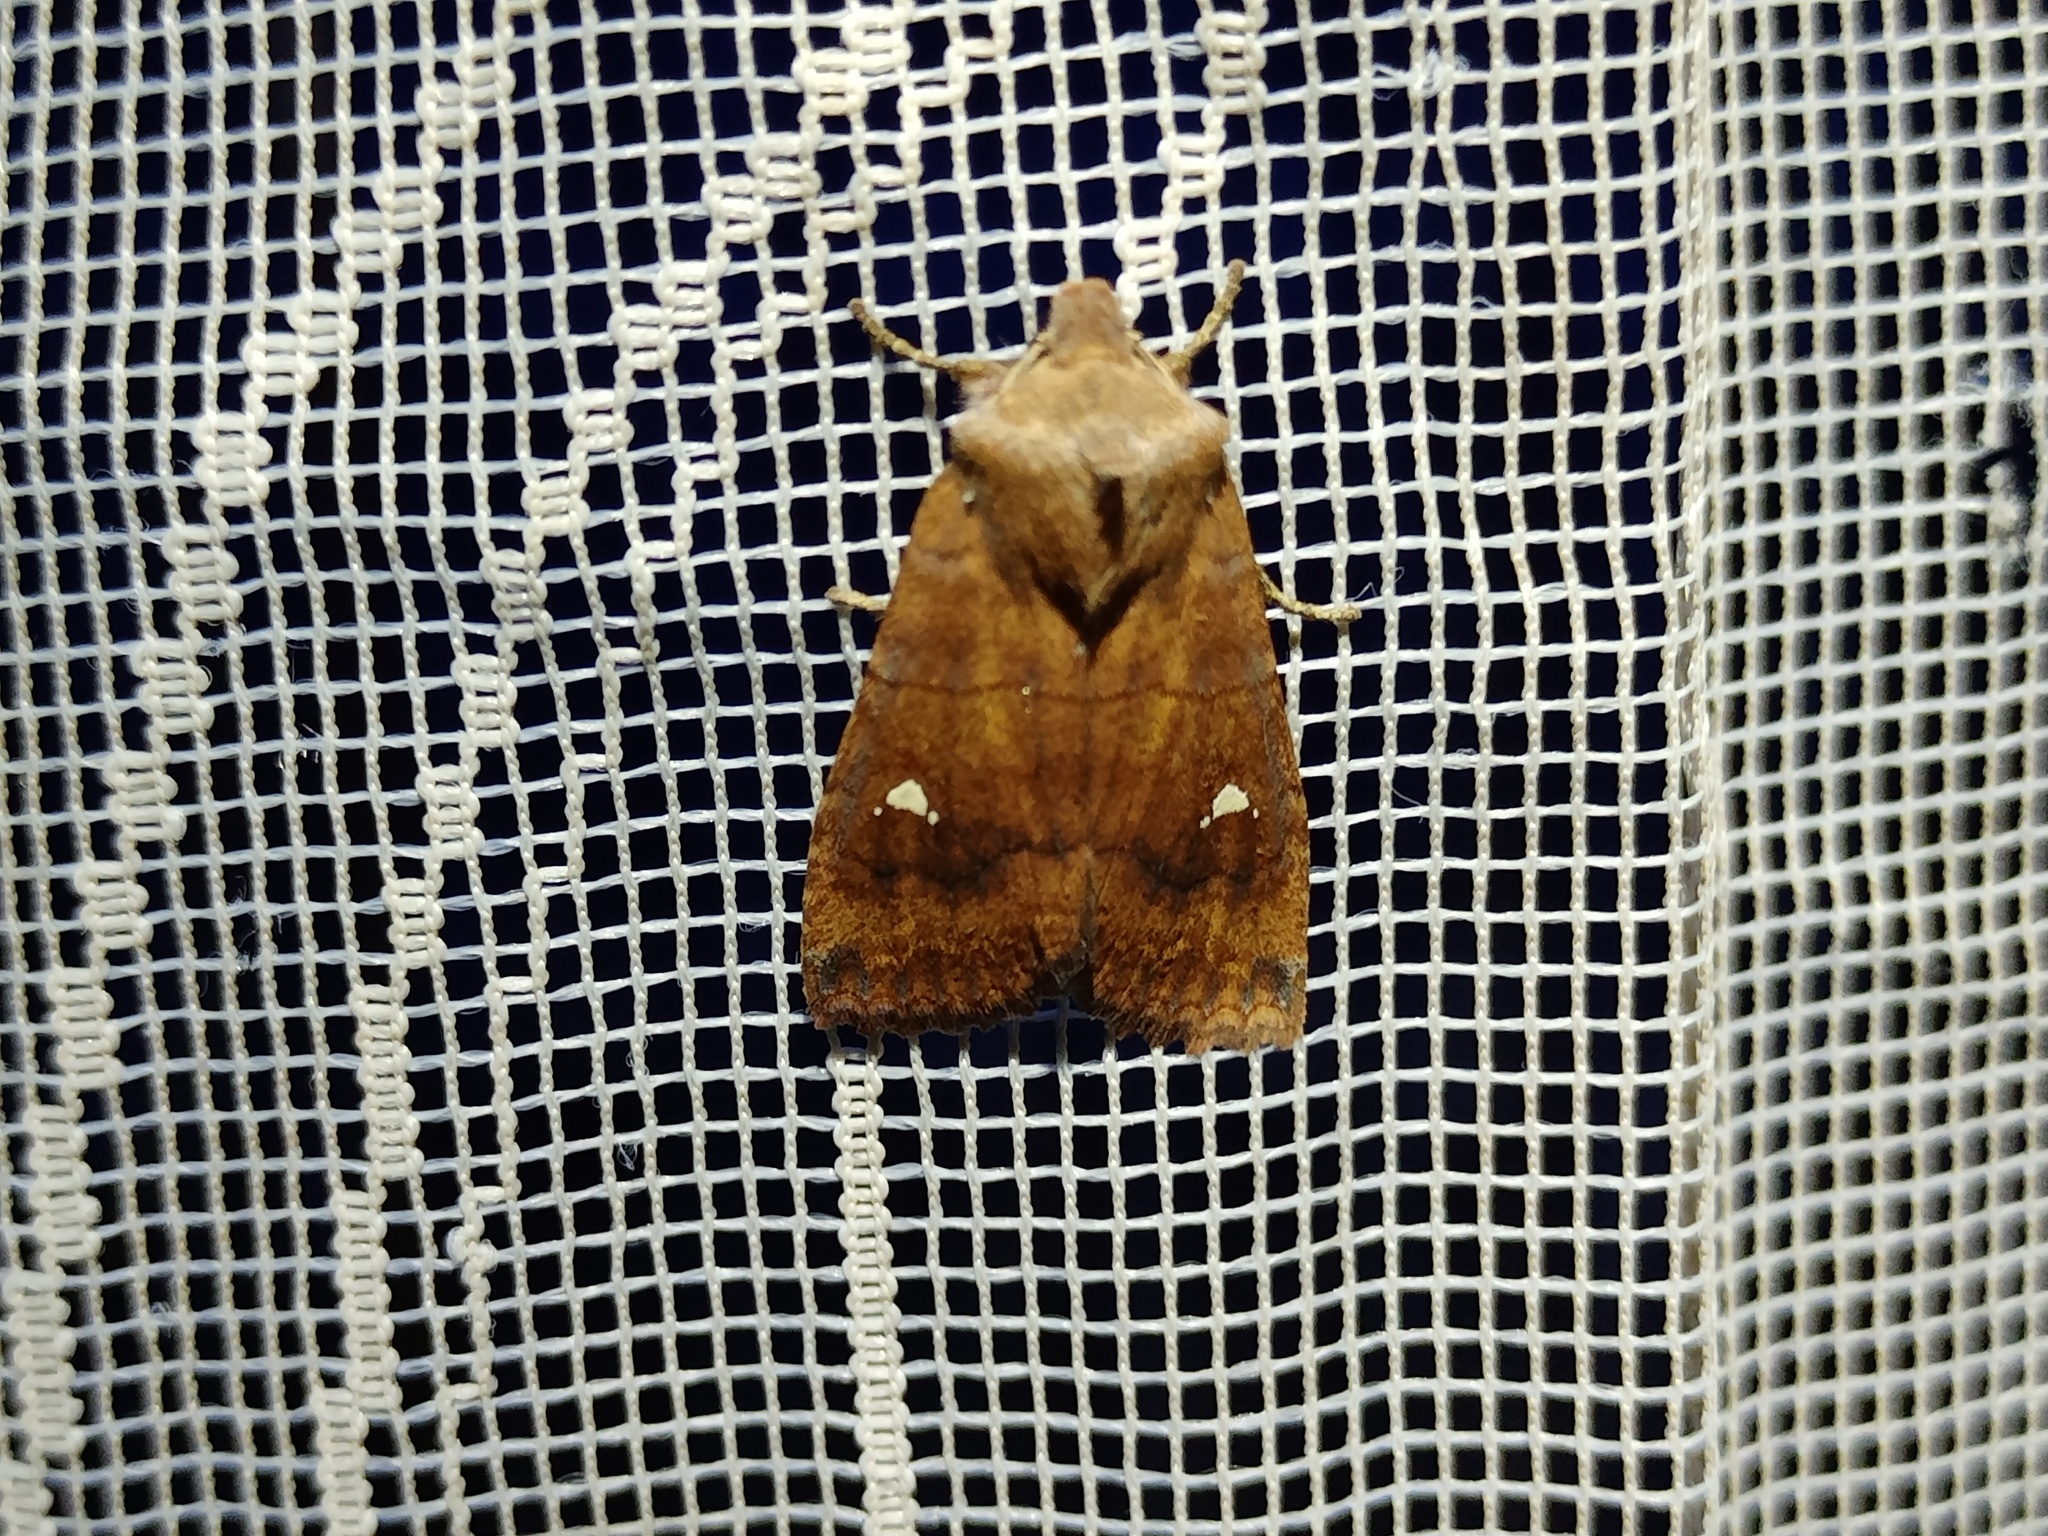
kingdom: Animalia
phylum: Arthropoda
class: Insecta
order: Lepidoptera
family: Noctuidae
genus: Eupsilia
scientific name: Eupsilia transversa
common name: Satellite
